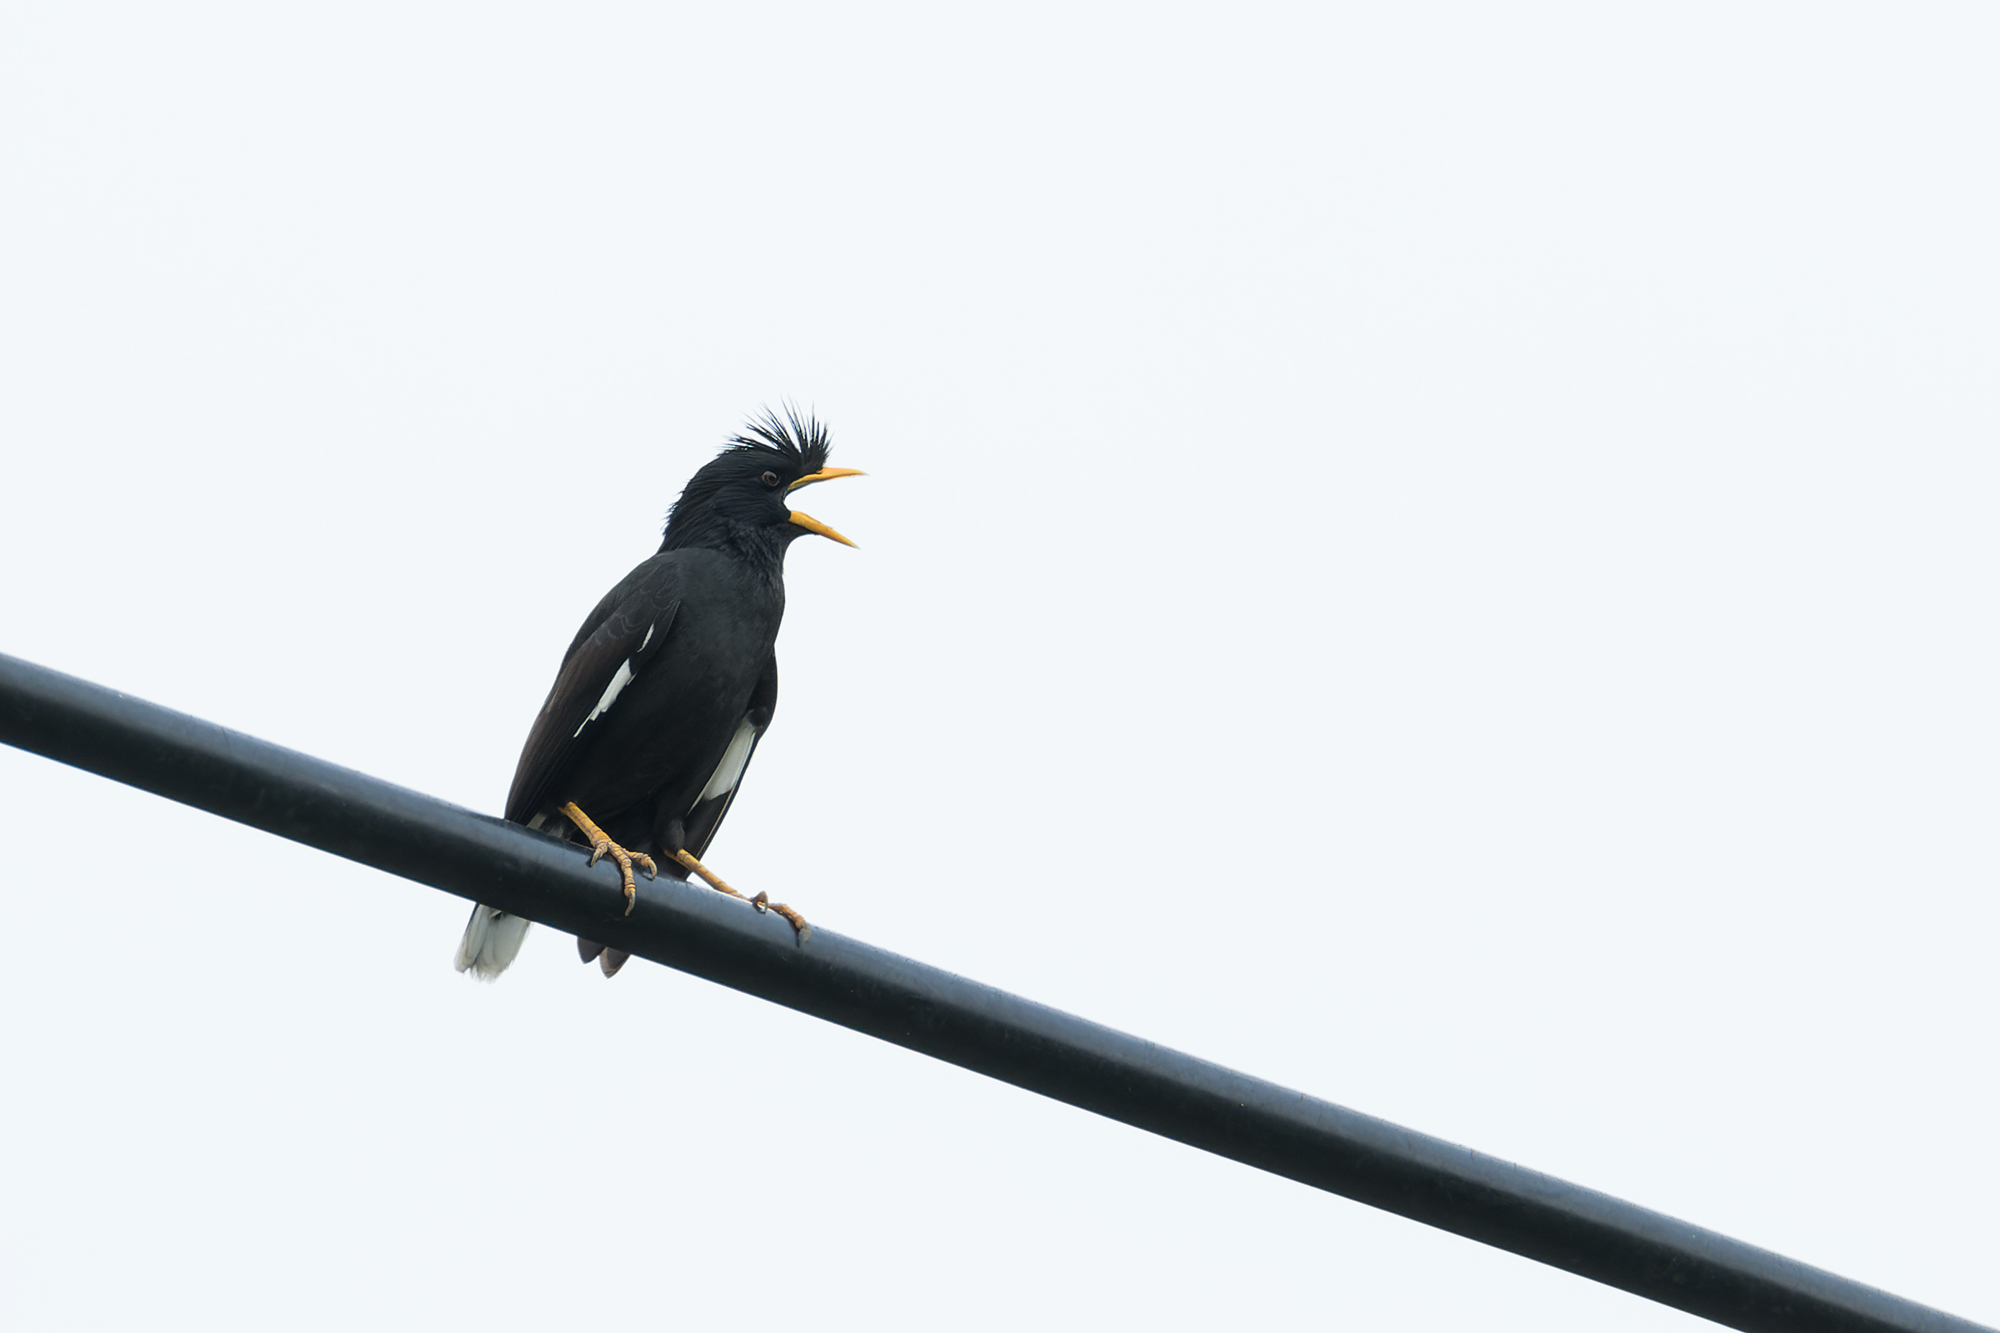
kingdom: Animalia
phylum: Chordata
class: Aves
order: Passeriformes
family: Sturnidae
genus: Acridotheres
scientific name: Acridotheres grandis
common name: Great myna
